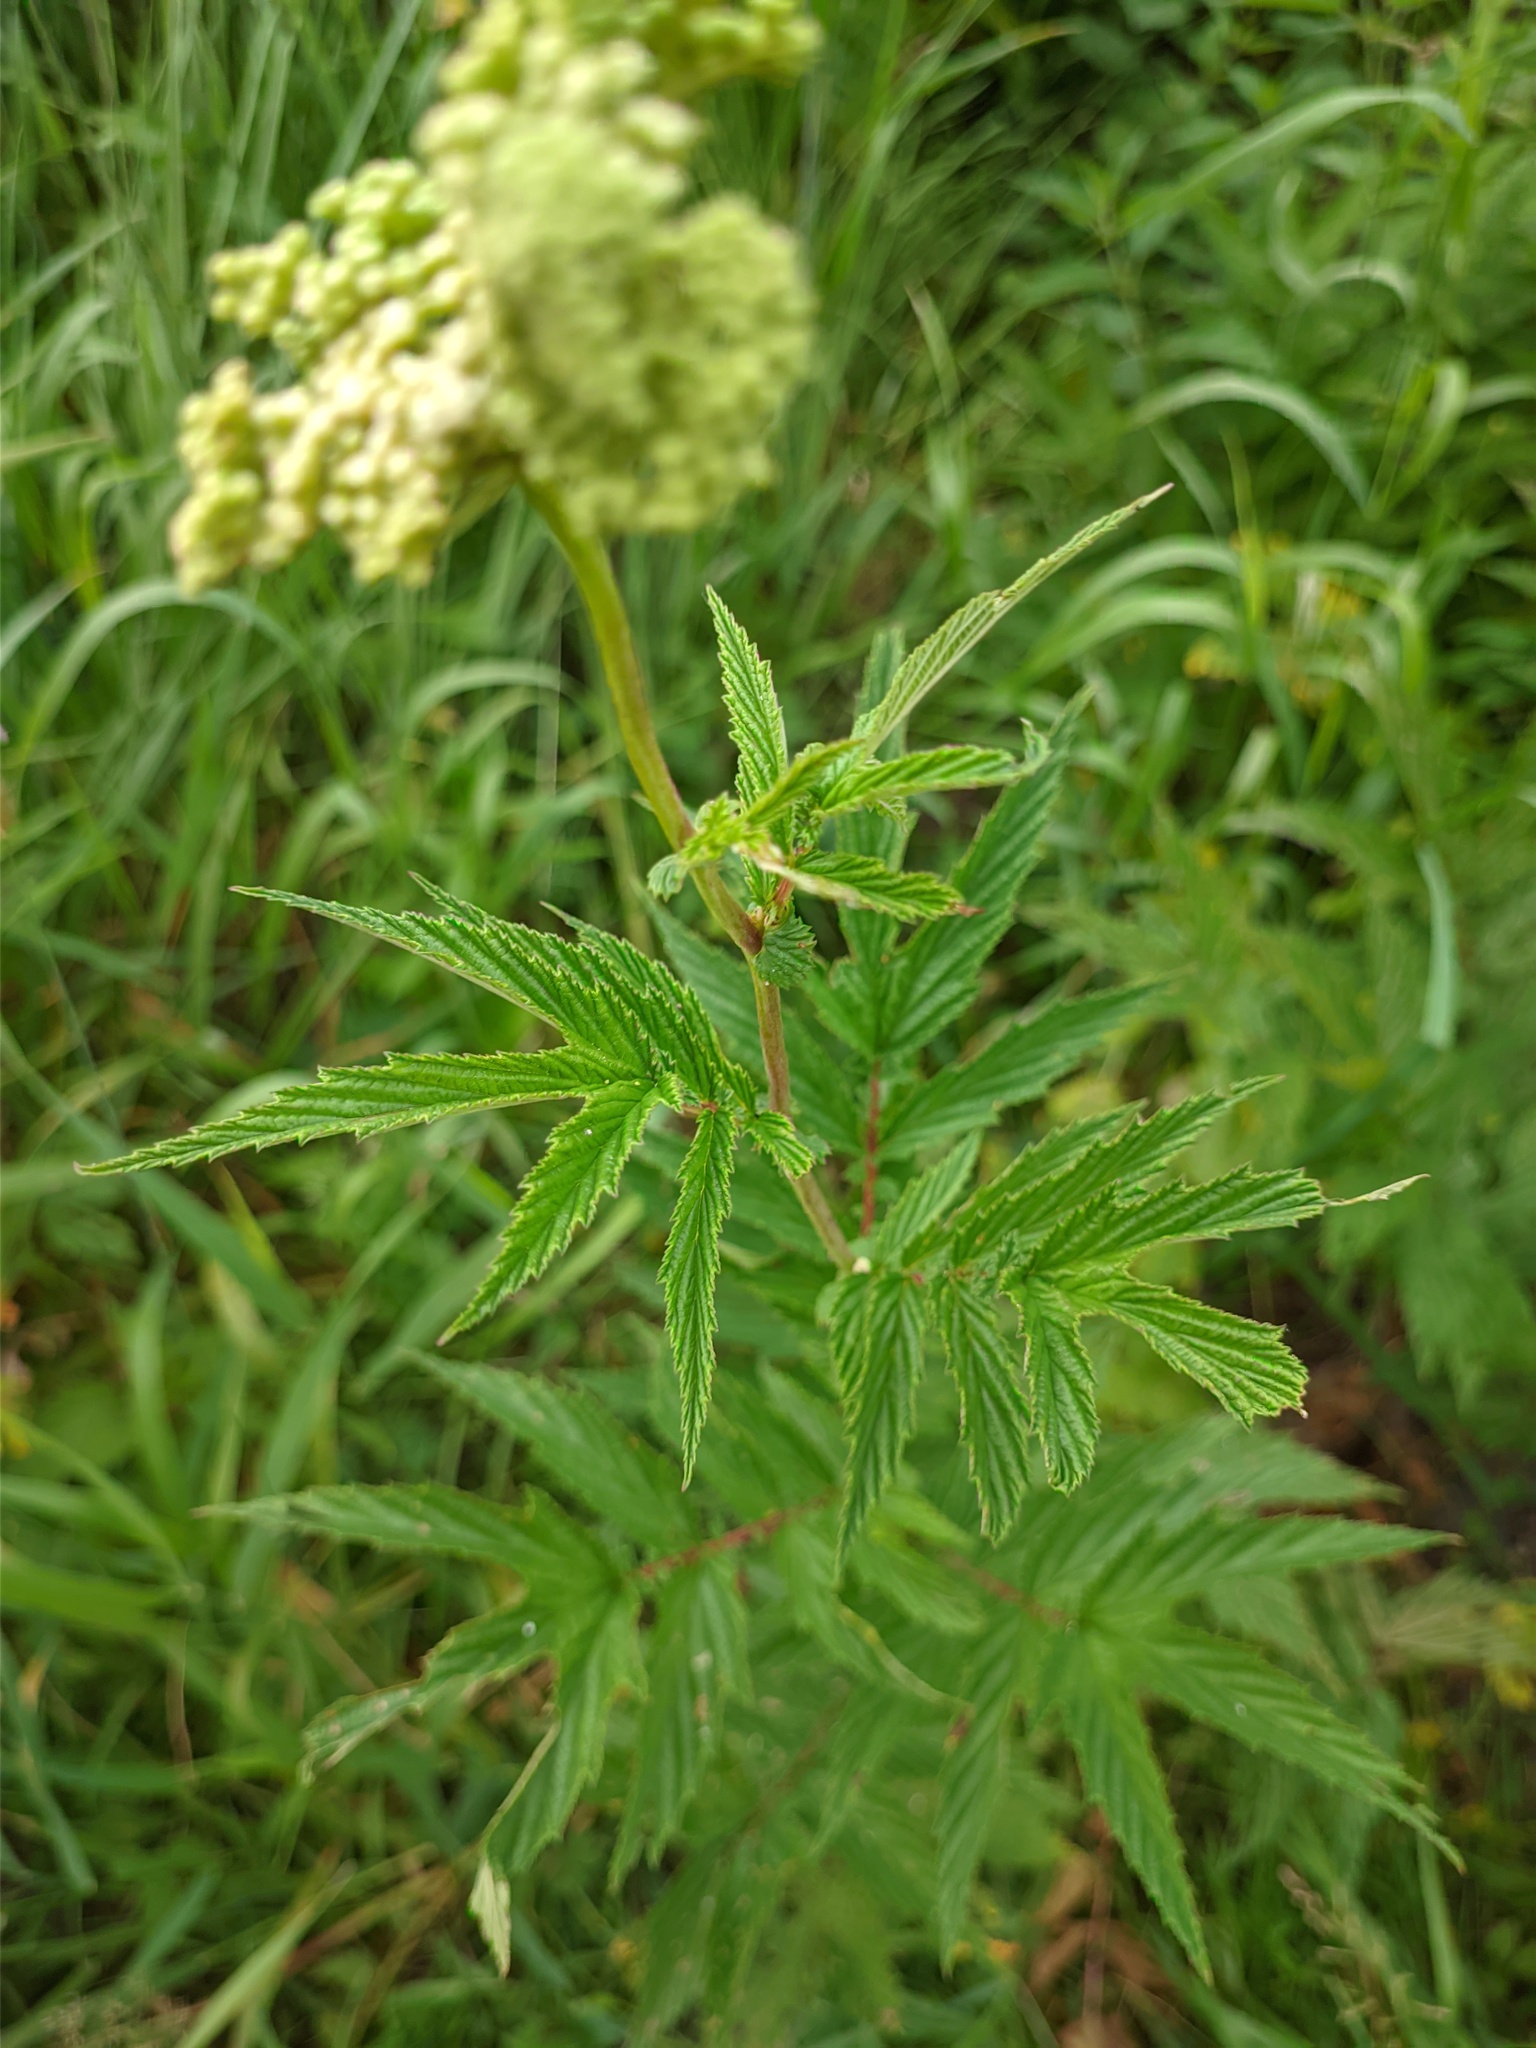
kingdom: Plantae
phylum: Tracheophyta
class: Magnoliopsida
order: Rosales
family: Rosaceae
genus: Filipendula
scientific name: Filipendula ulmaria
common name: Meadowsweet
